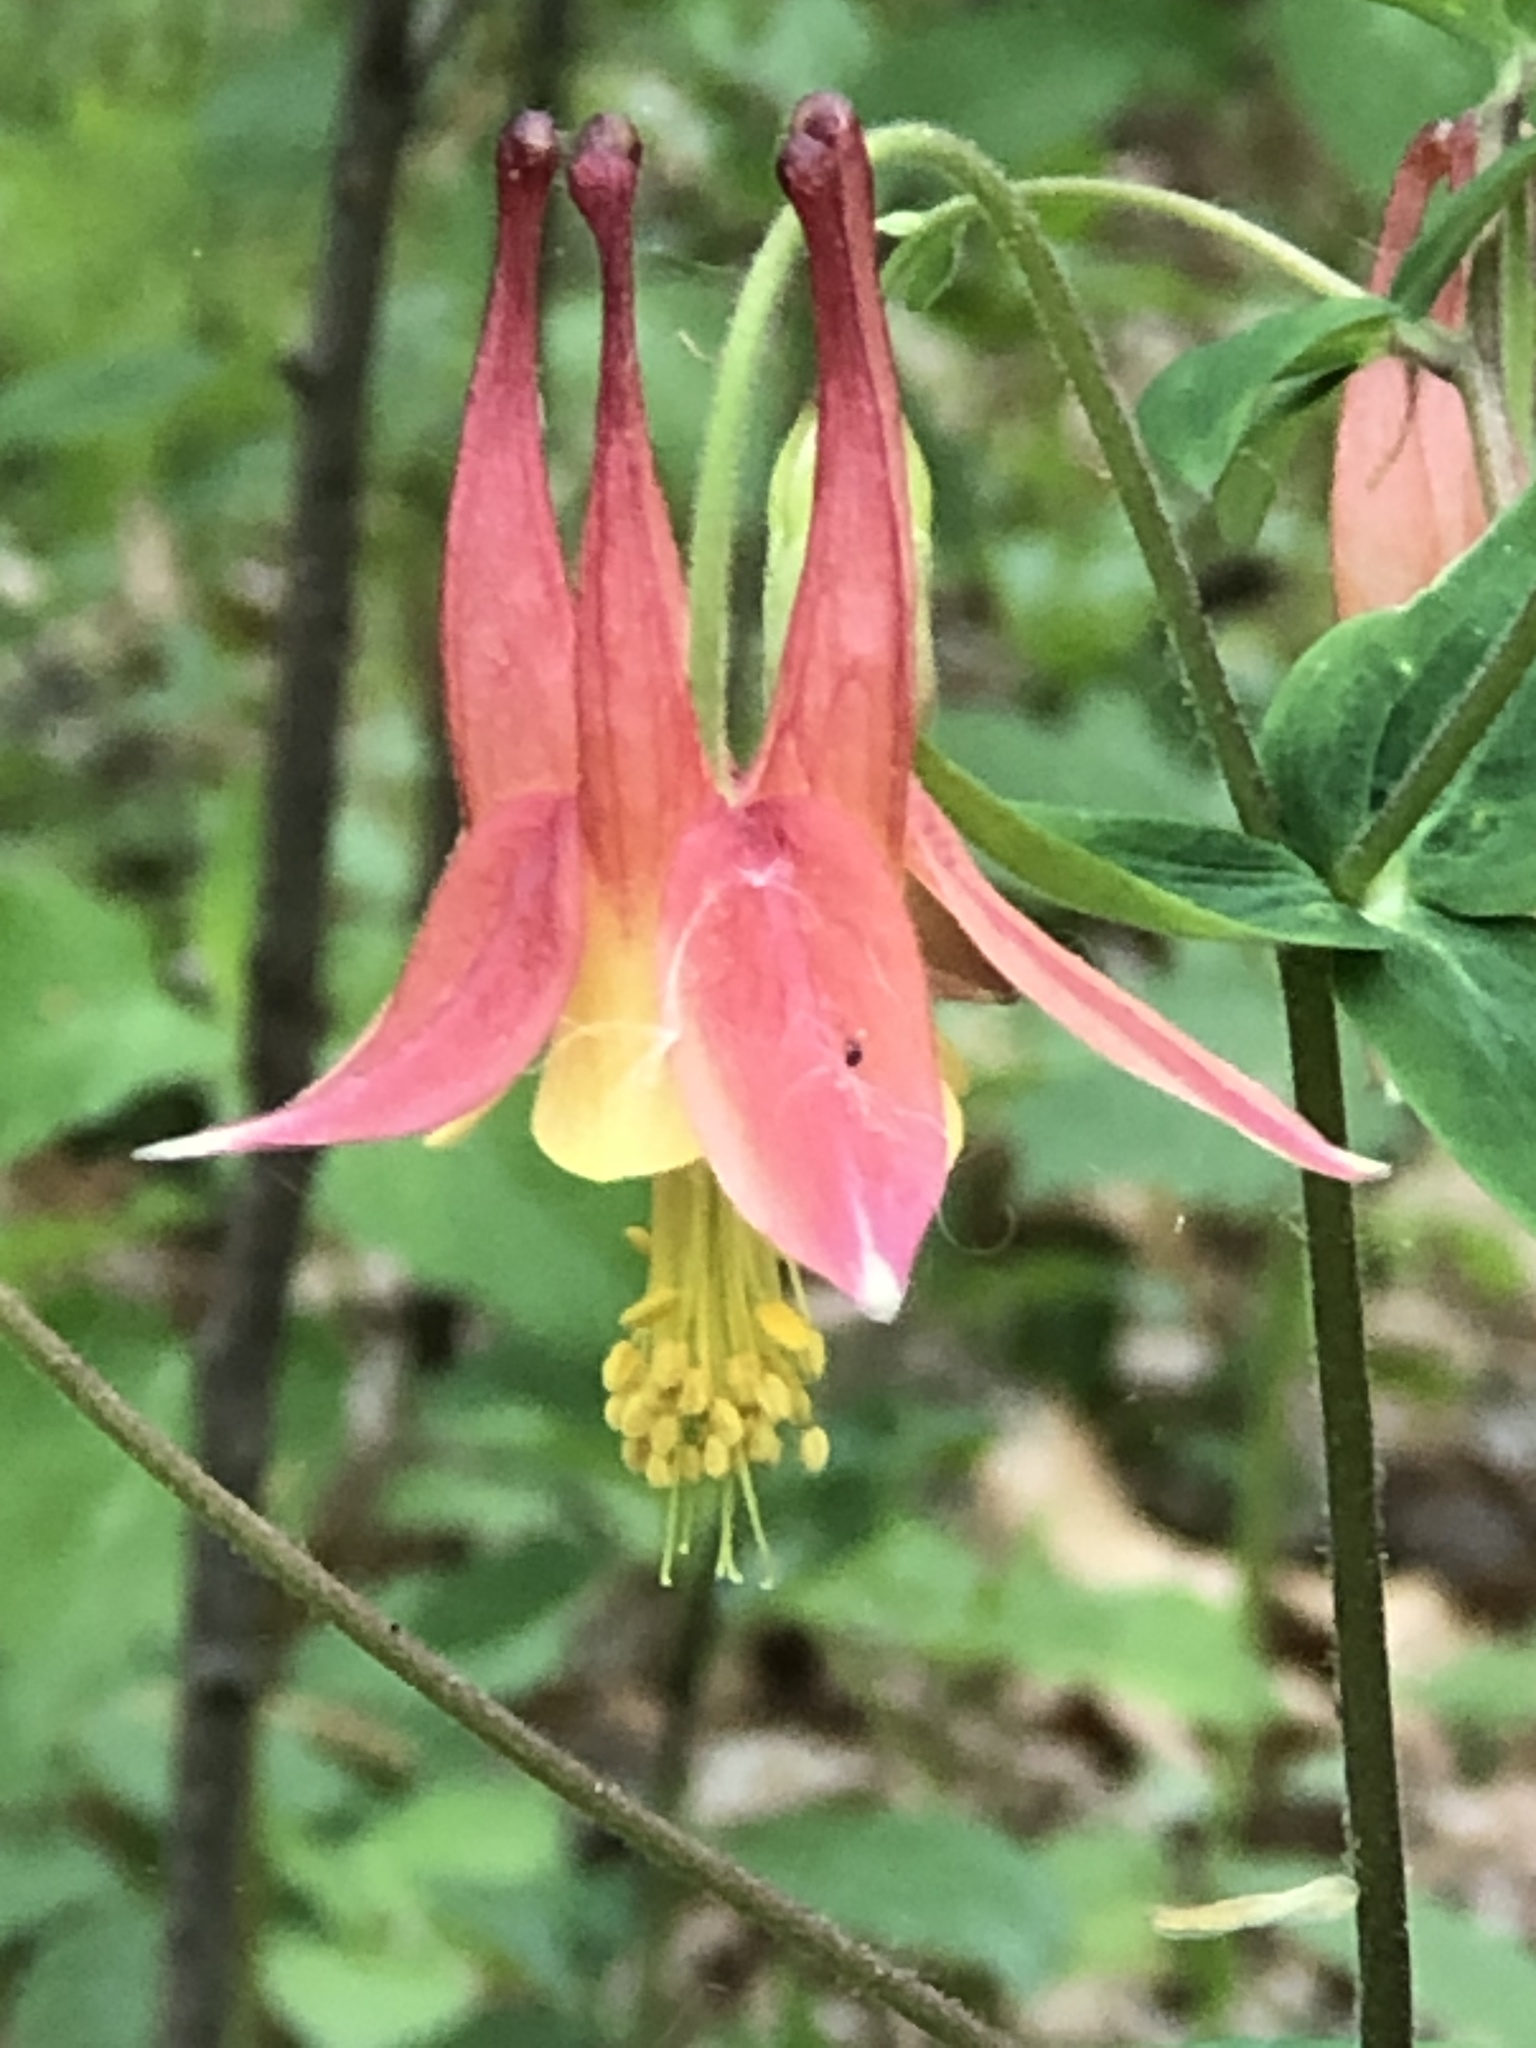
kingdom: Plantae
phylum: Tracheophyta
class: Magnoliopsida
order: Ranunculales
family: Ranunculaceae
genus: Aquilegia
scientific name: Aquilegia canadensis
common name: American columbine
